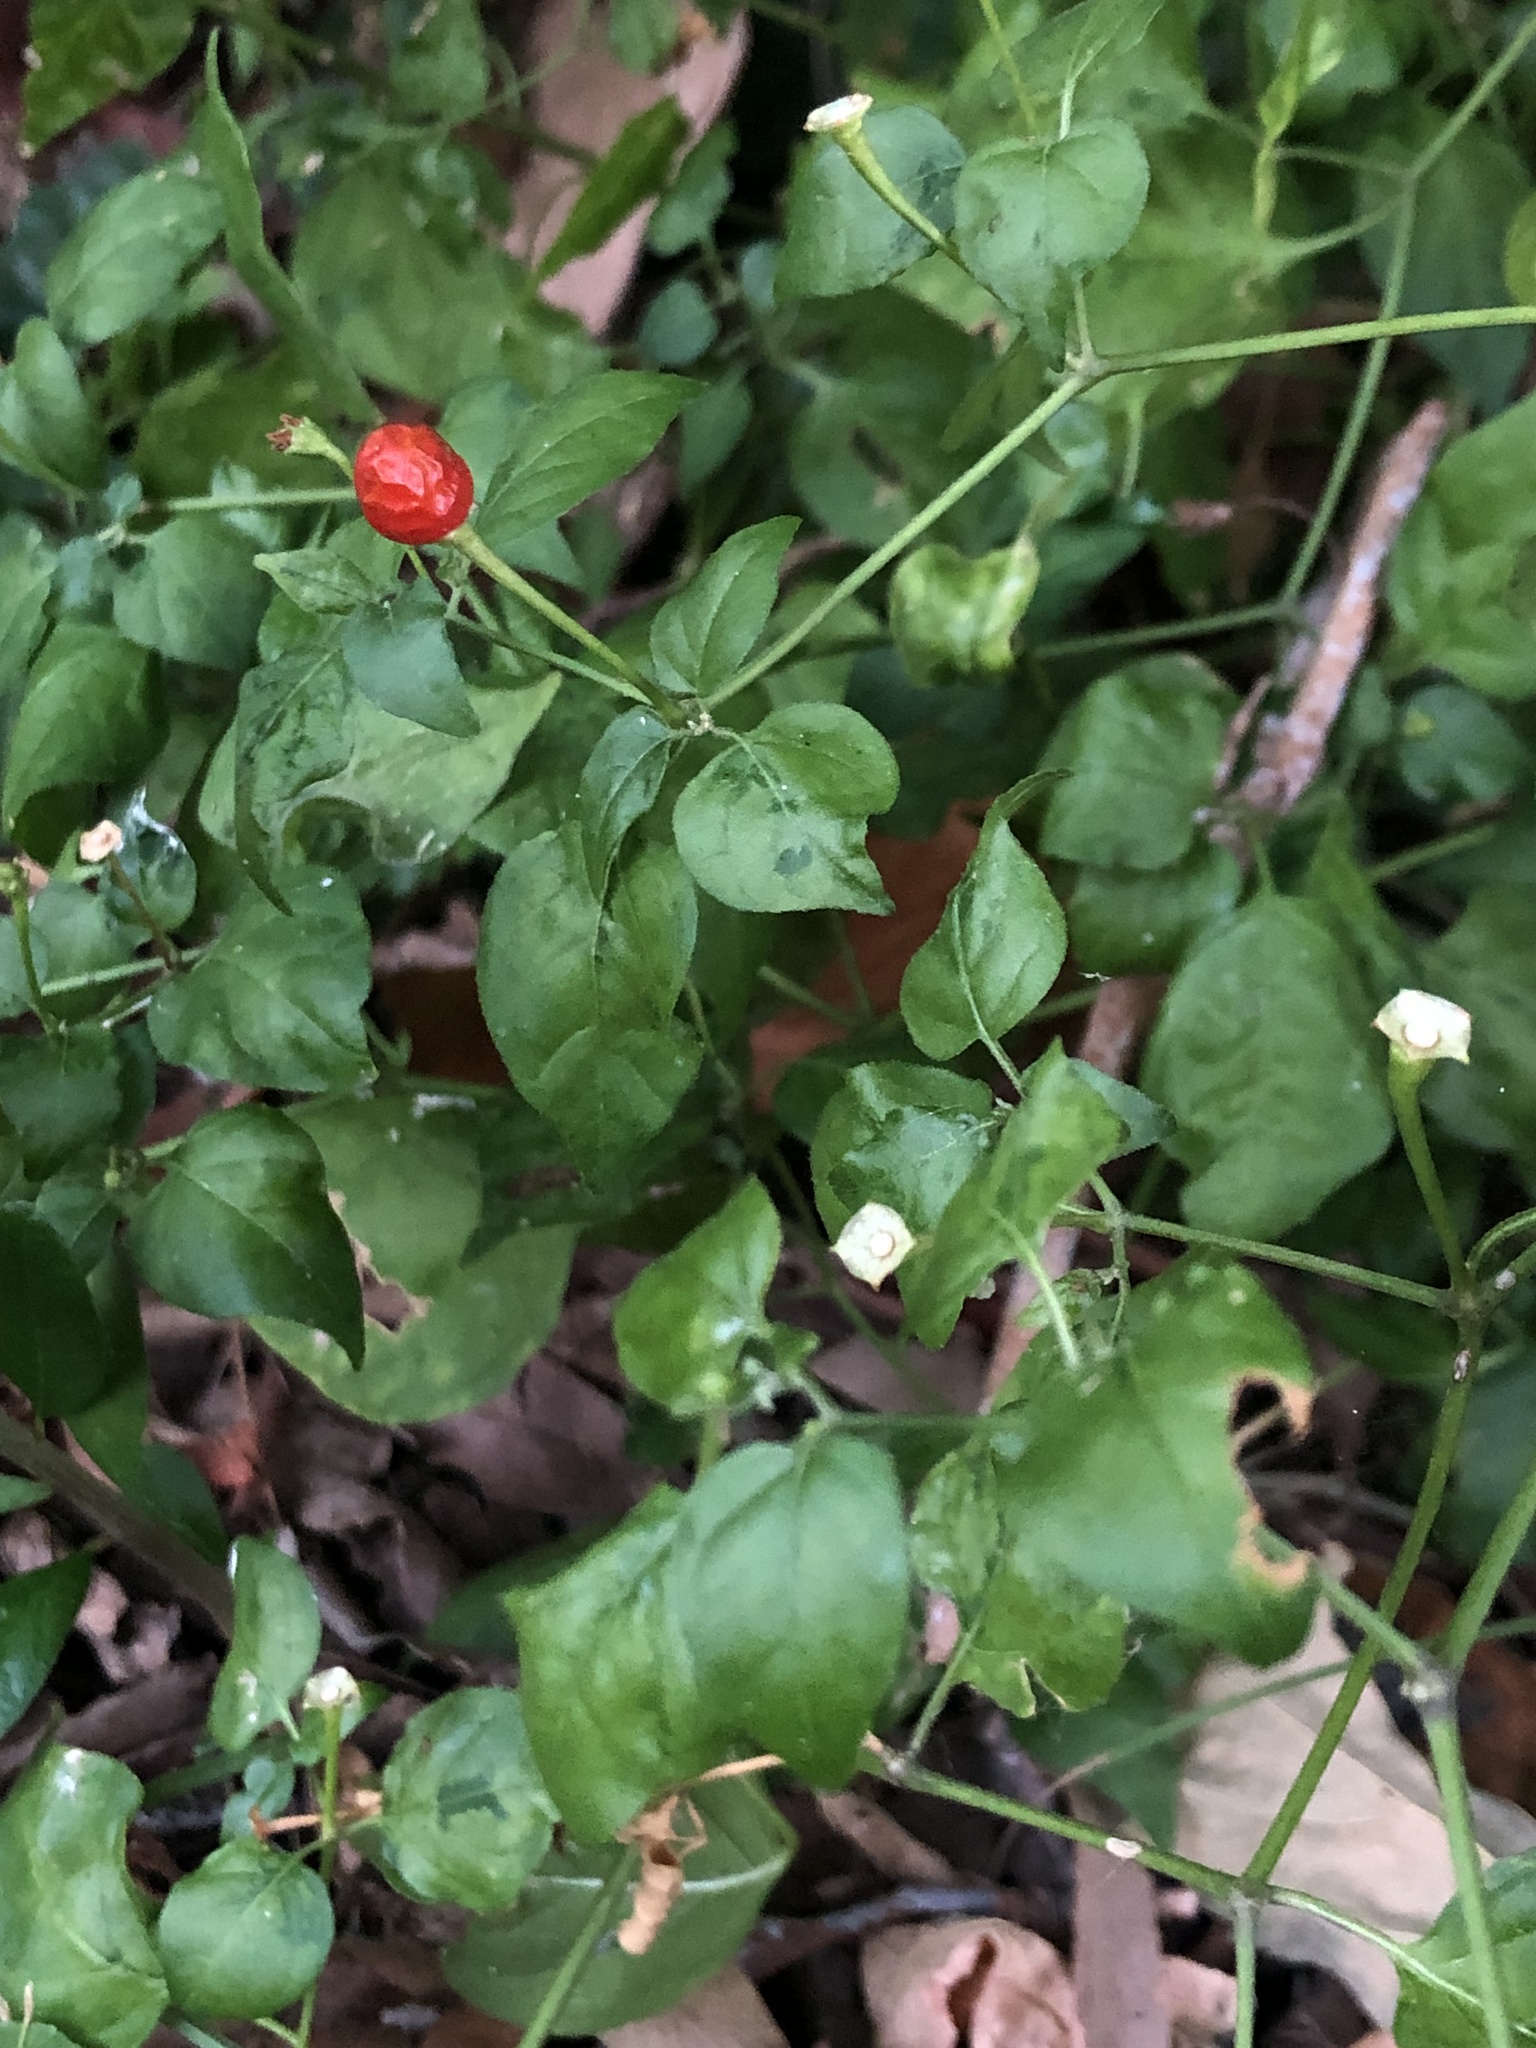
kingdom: Plantae
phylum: Tracheophyta
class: Magnoliopsida
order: Solanales
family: Solanaceae
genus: Capsicum
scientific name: Capsicum annuum
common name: Sweet pepper
